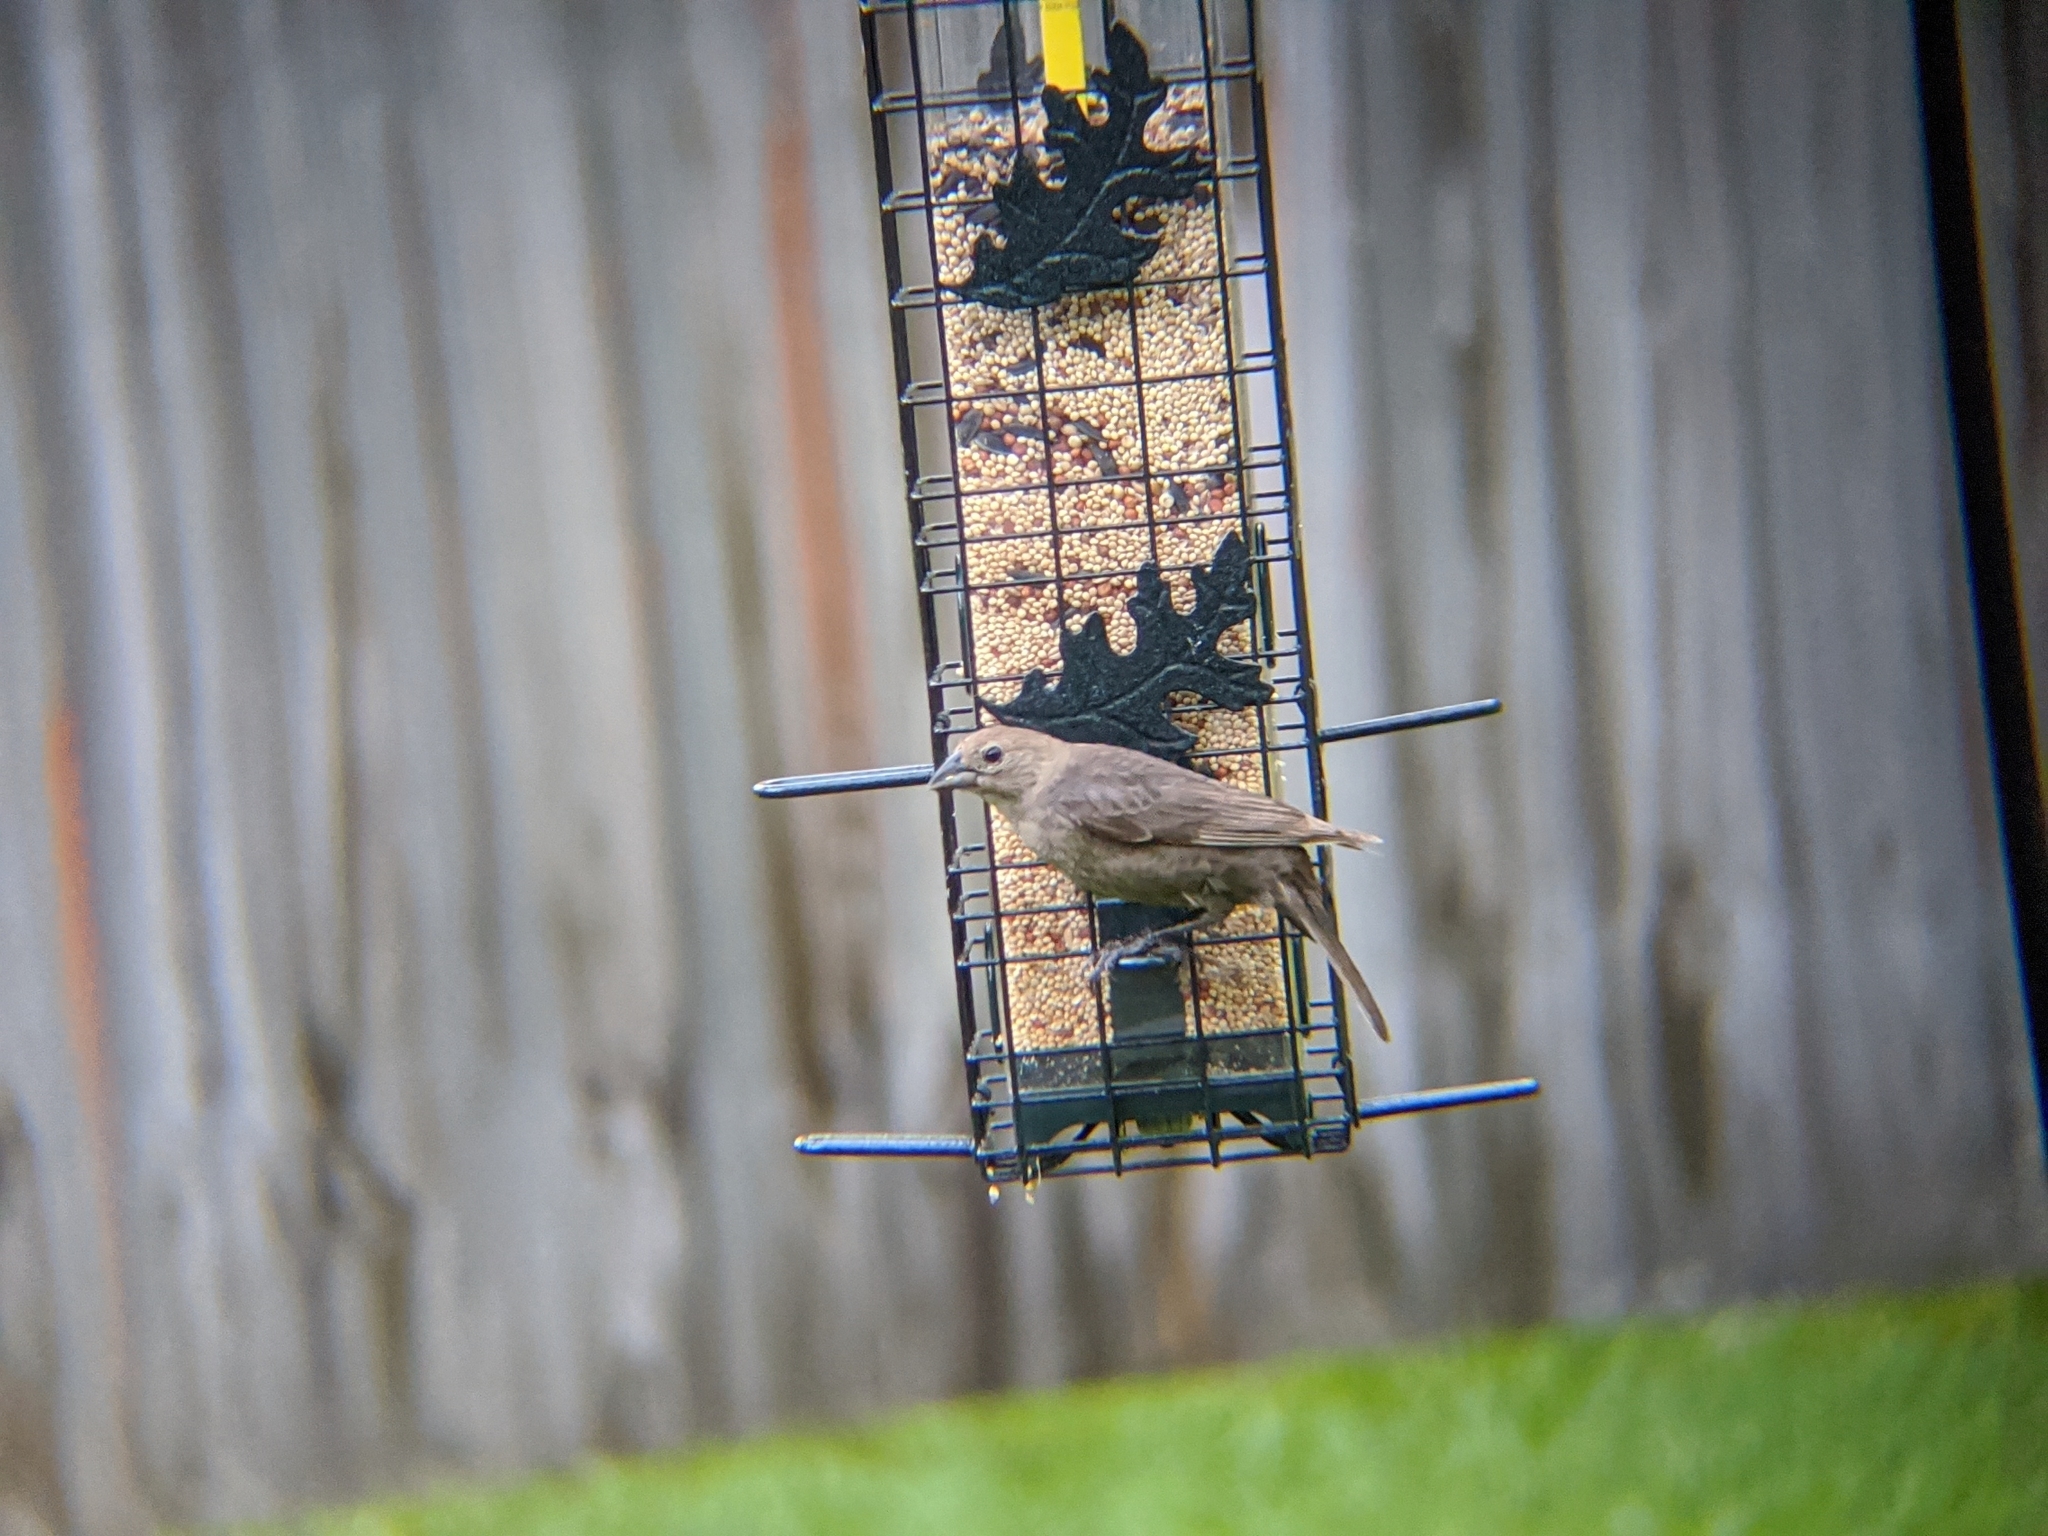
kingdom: Animalia
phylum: Chordata
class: Aves
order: Passeriformes
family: Icteridae
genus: Molothrus
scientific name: Molothrus ater
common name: Brown-headed cowbird
